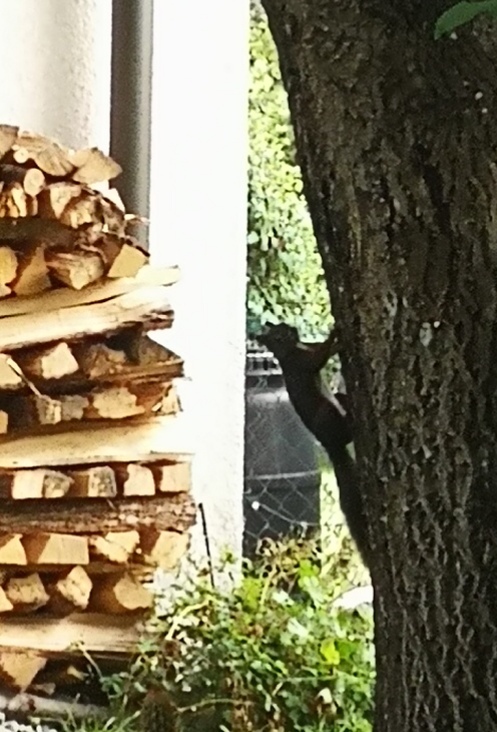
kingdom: Animalia
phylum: Chordata
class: Mammalia
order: Rodentia
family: Sciuridae
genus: Sciurus
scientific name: Sciurus vulgaris
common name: Eurasian red squirrel
